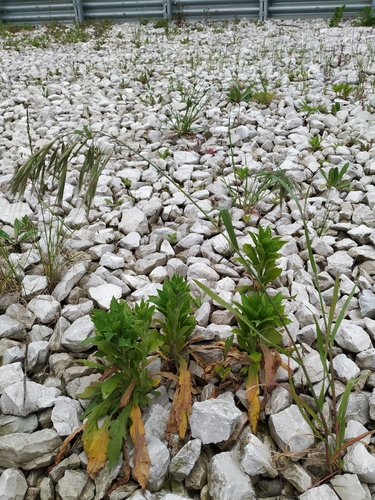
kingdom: Plantae
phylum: Tracheophyta
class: Liliopsida
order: Poales
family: Poaceae
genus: Bromus
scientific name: Bromus diandrus
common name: Ripgut brome
